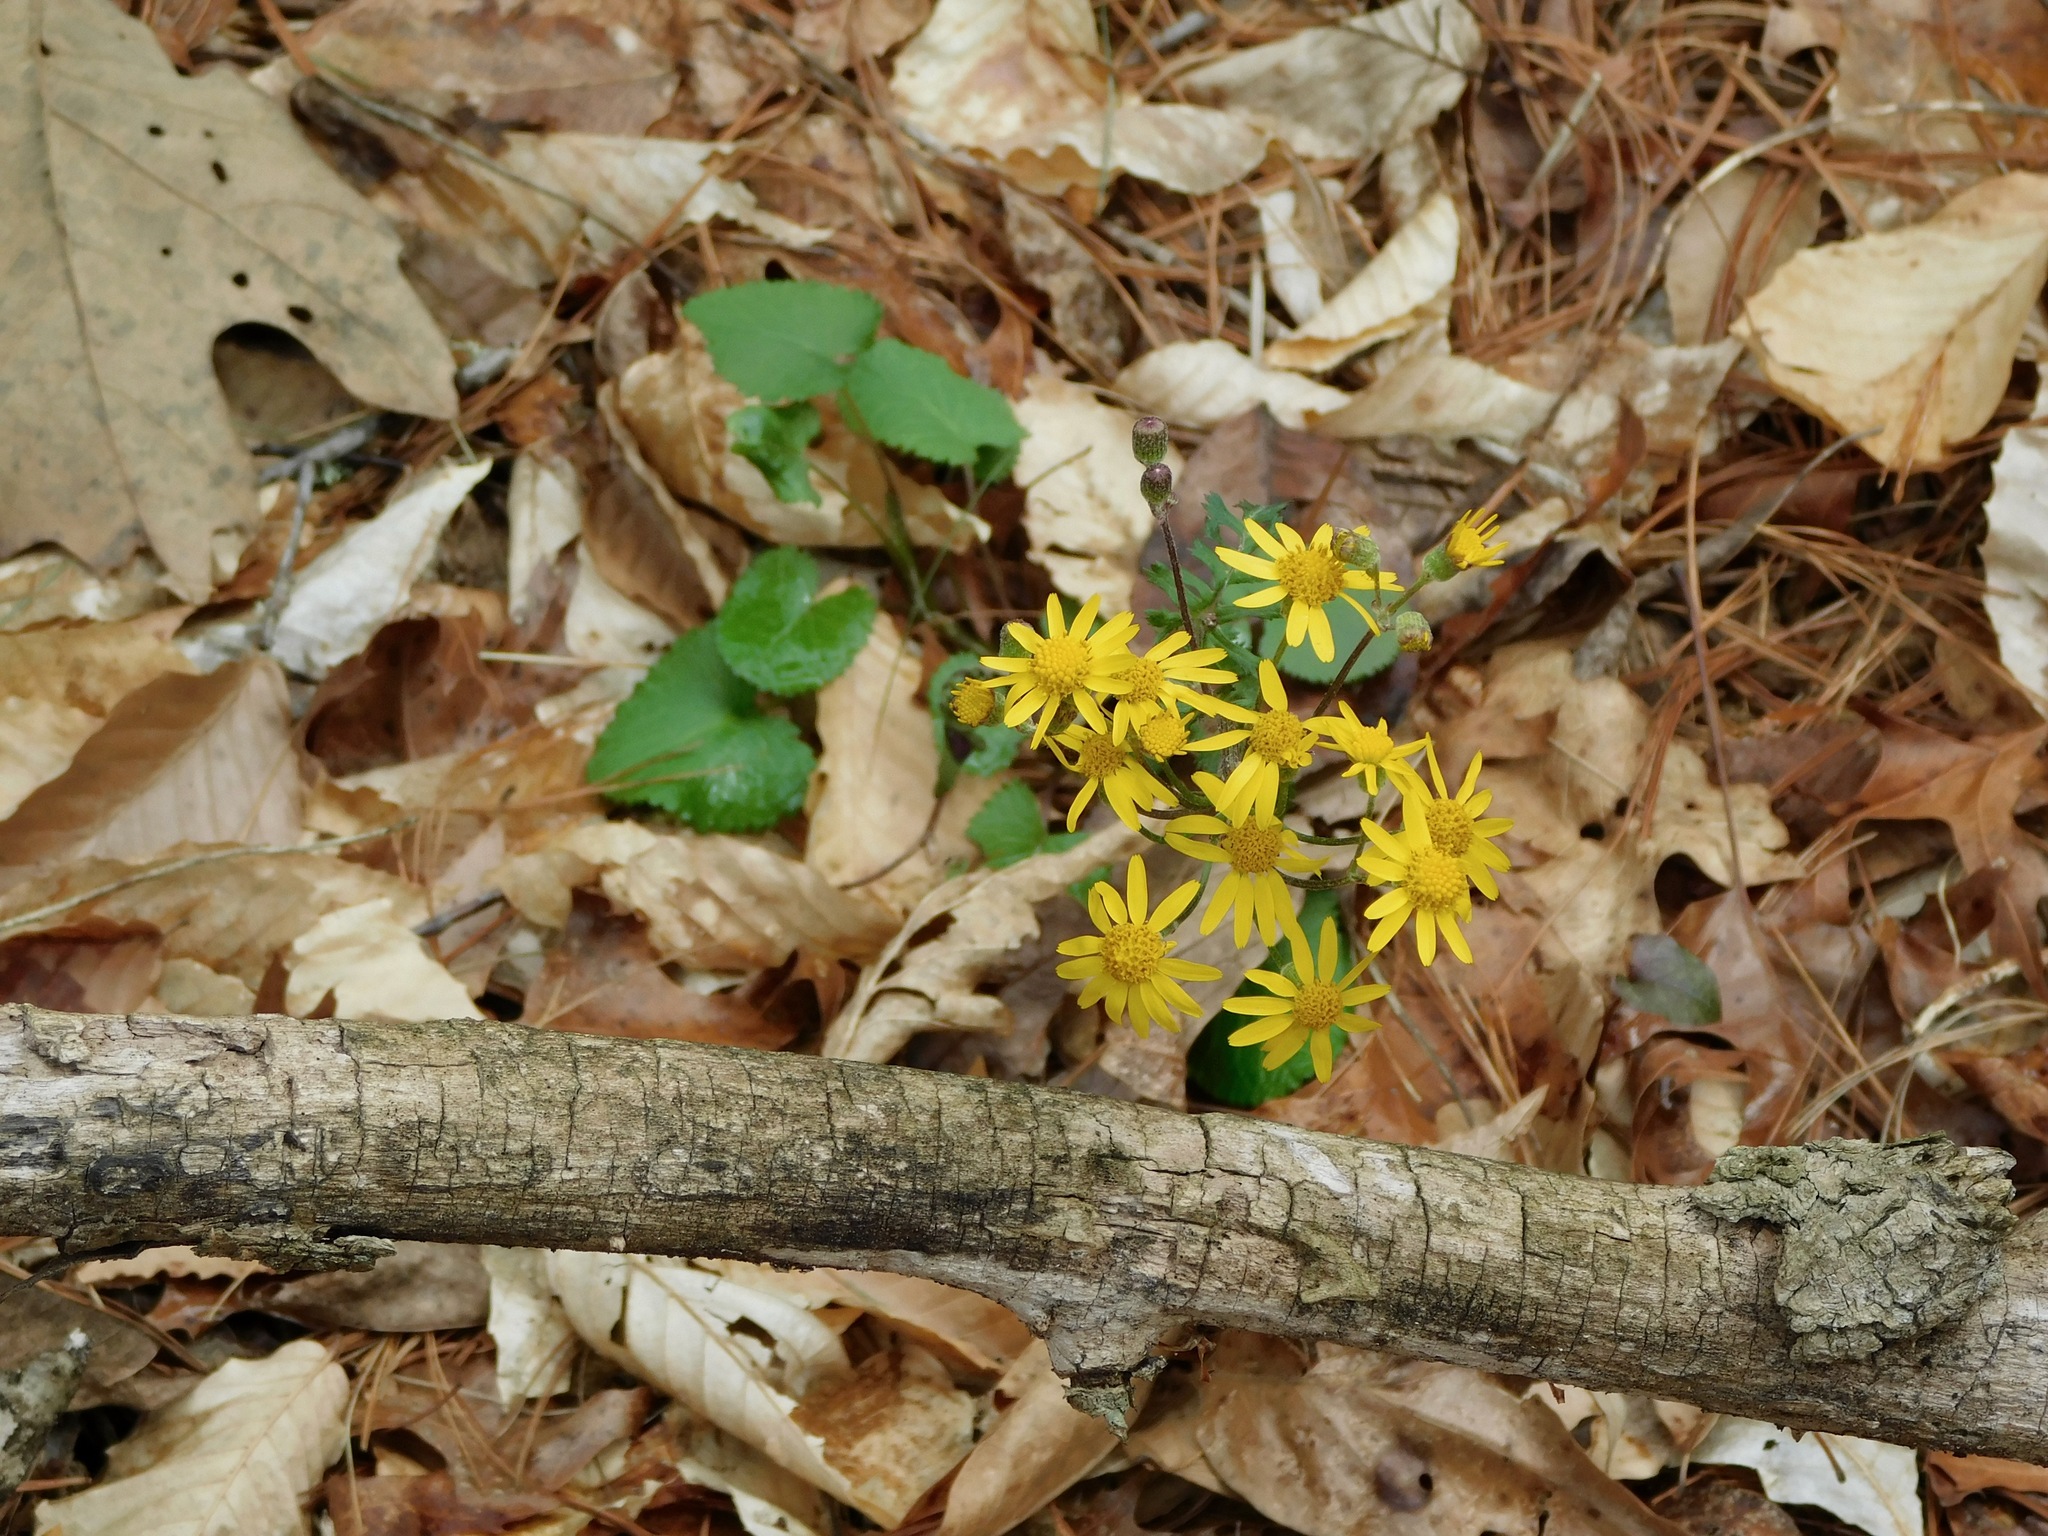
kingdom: Plantae
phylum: Tracheophyta
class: Magnoliopsida
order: Asterales
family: Asteraceae
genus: Packera
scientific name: Packera aurea
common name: Golden groundsel
